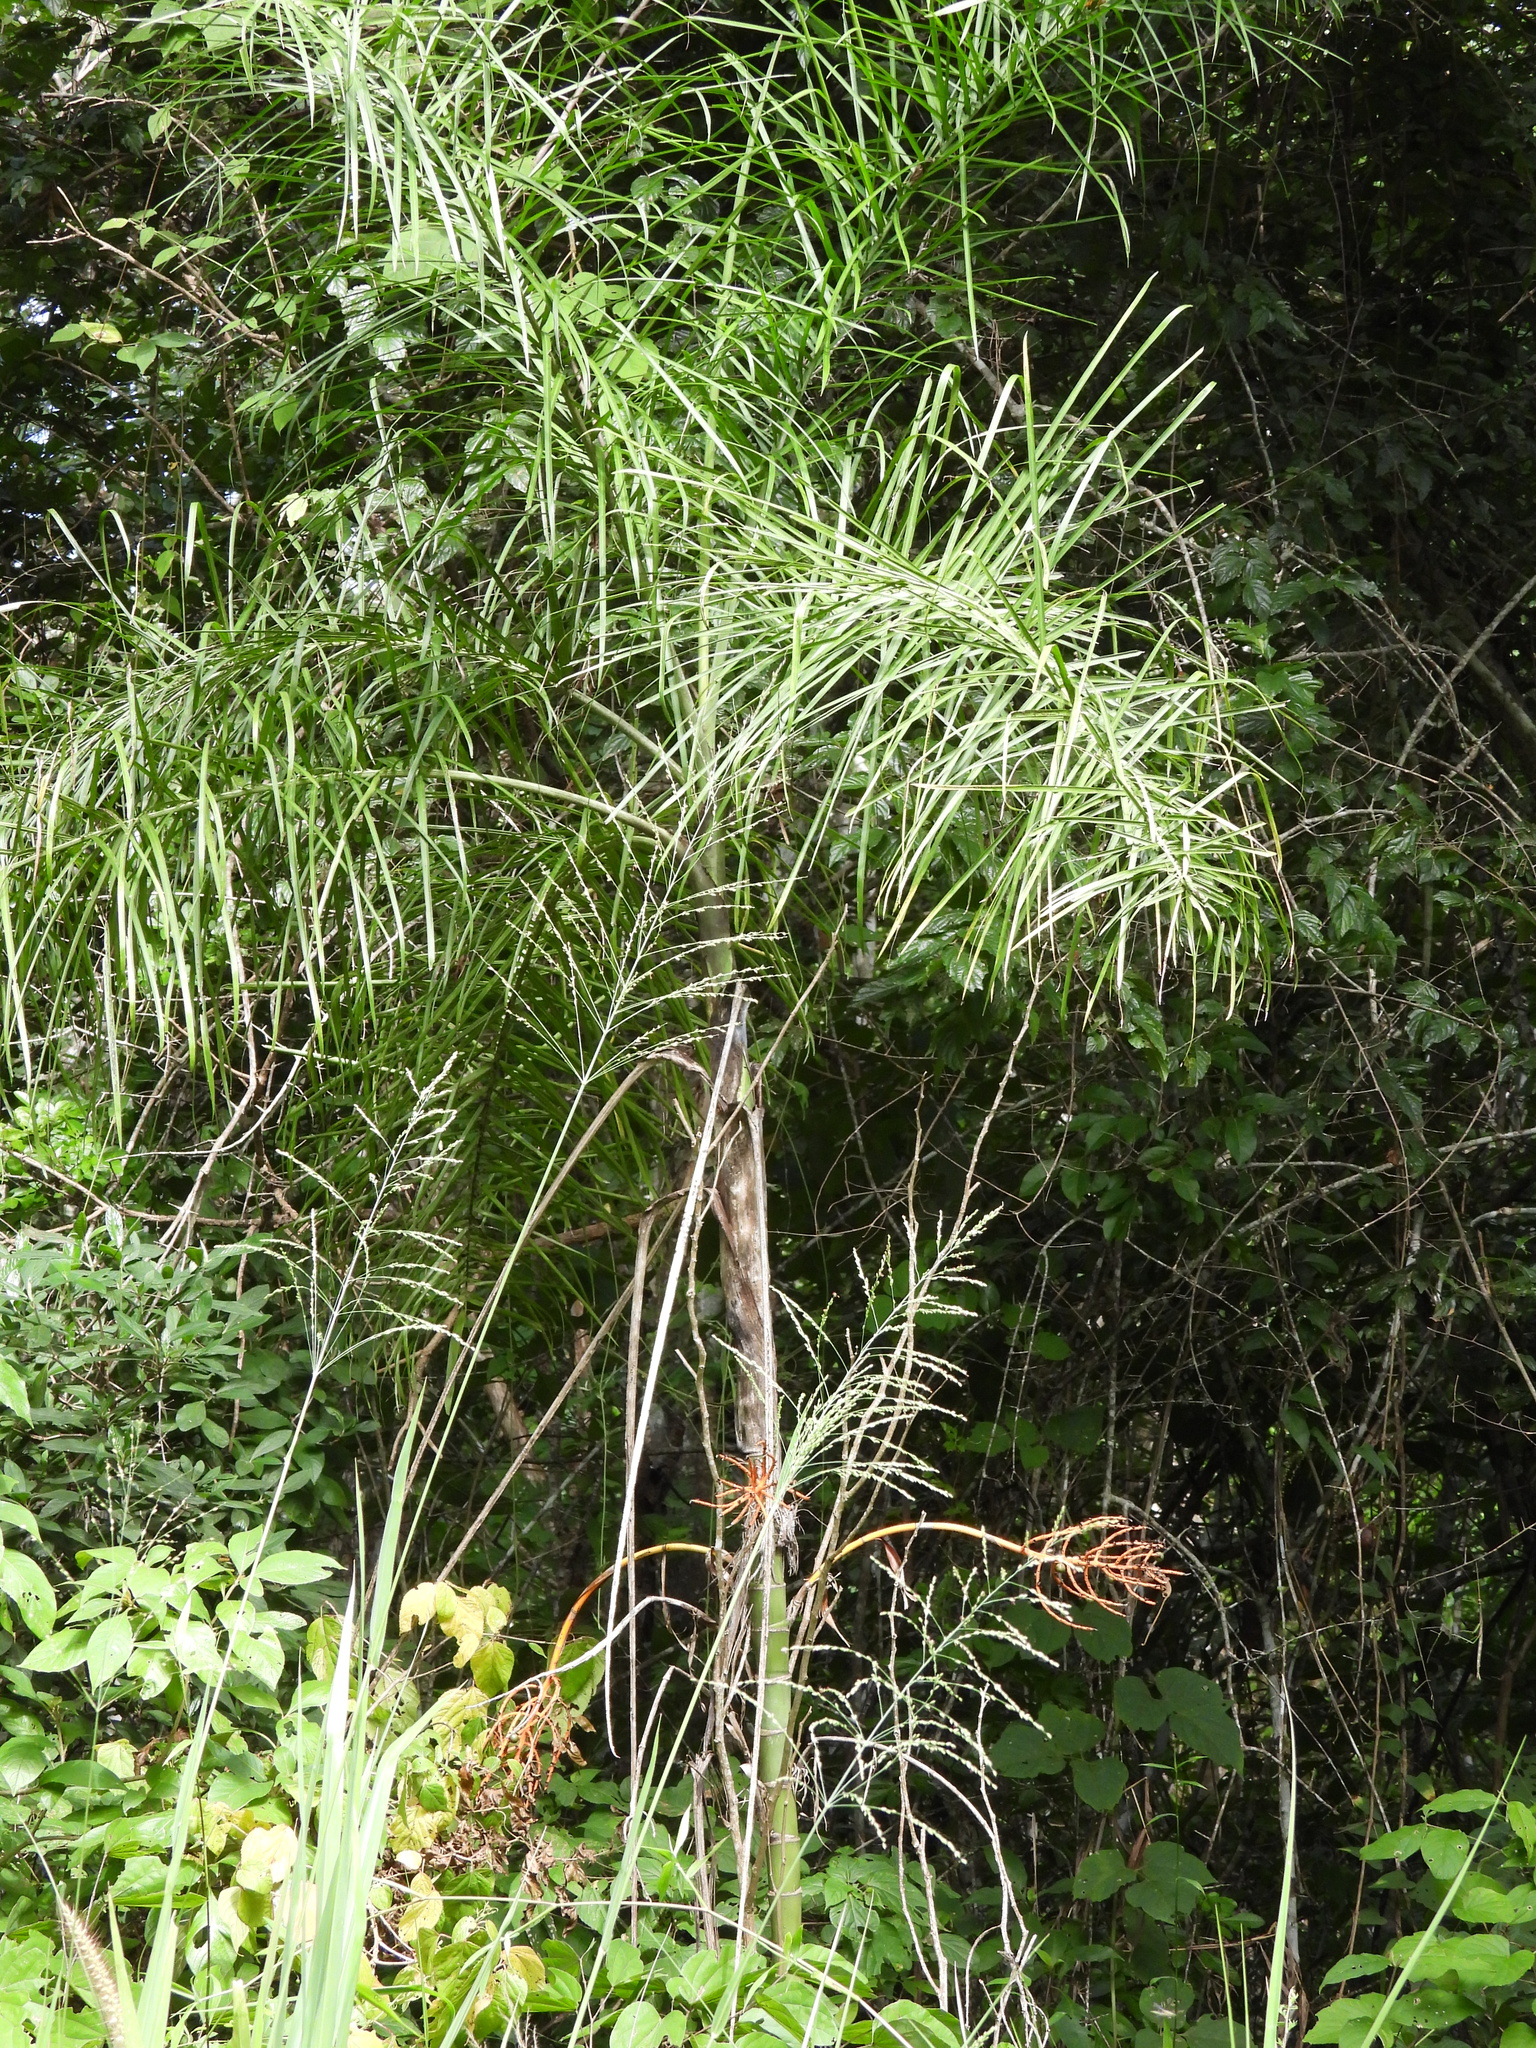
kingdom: Plantae
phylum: Tracheophyta
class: Liliopsida
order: Arecales
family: Arecaceae
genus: Chamaedorea
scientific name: Chamaedorea glaucifolia
